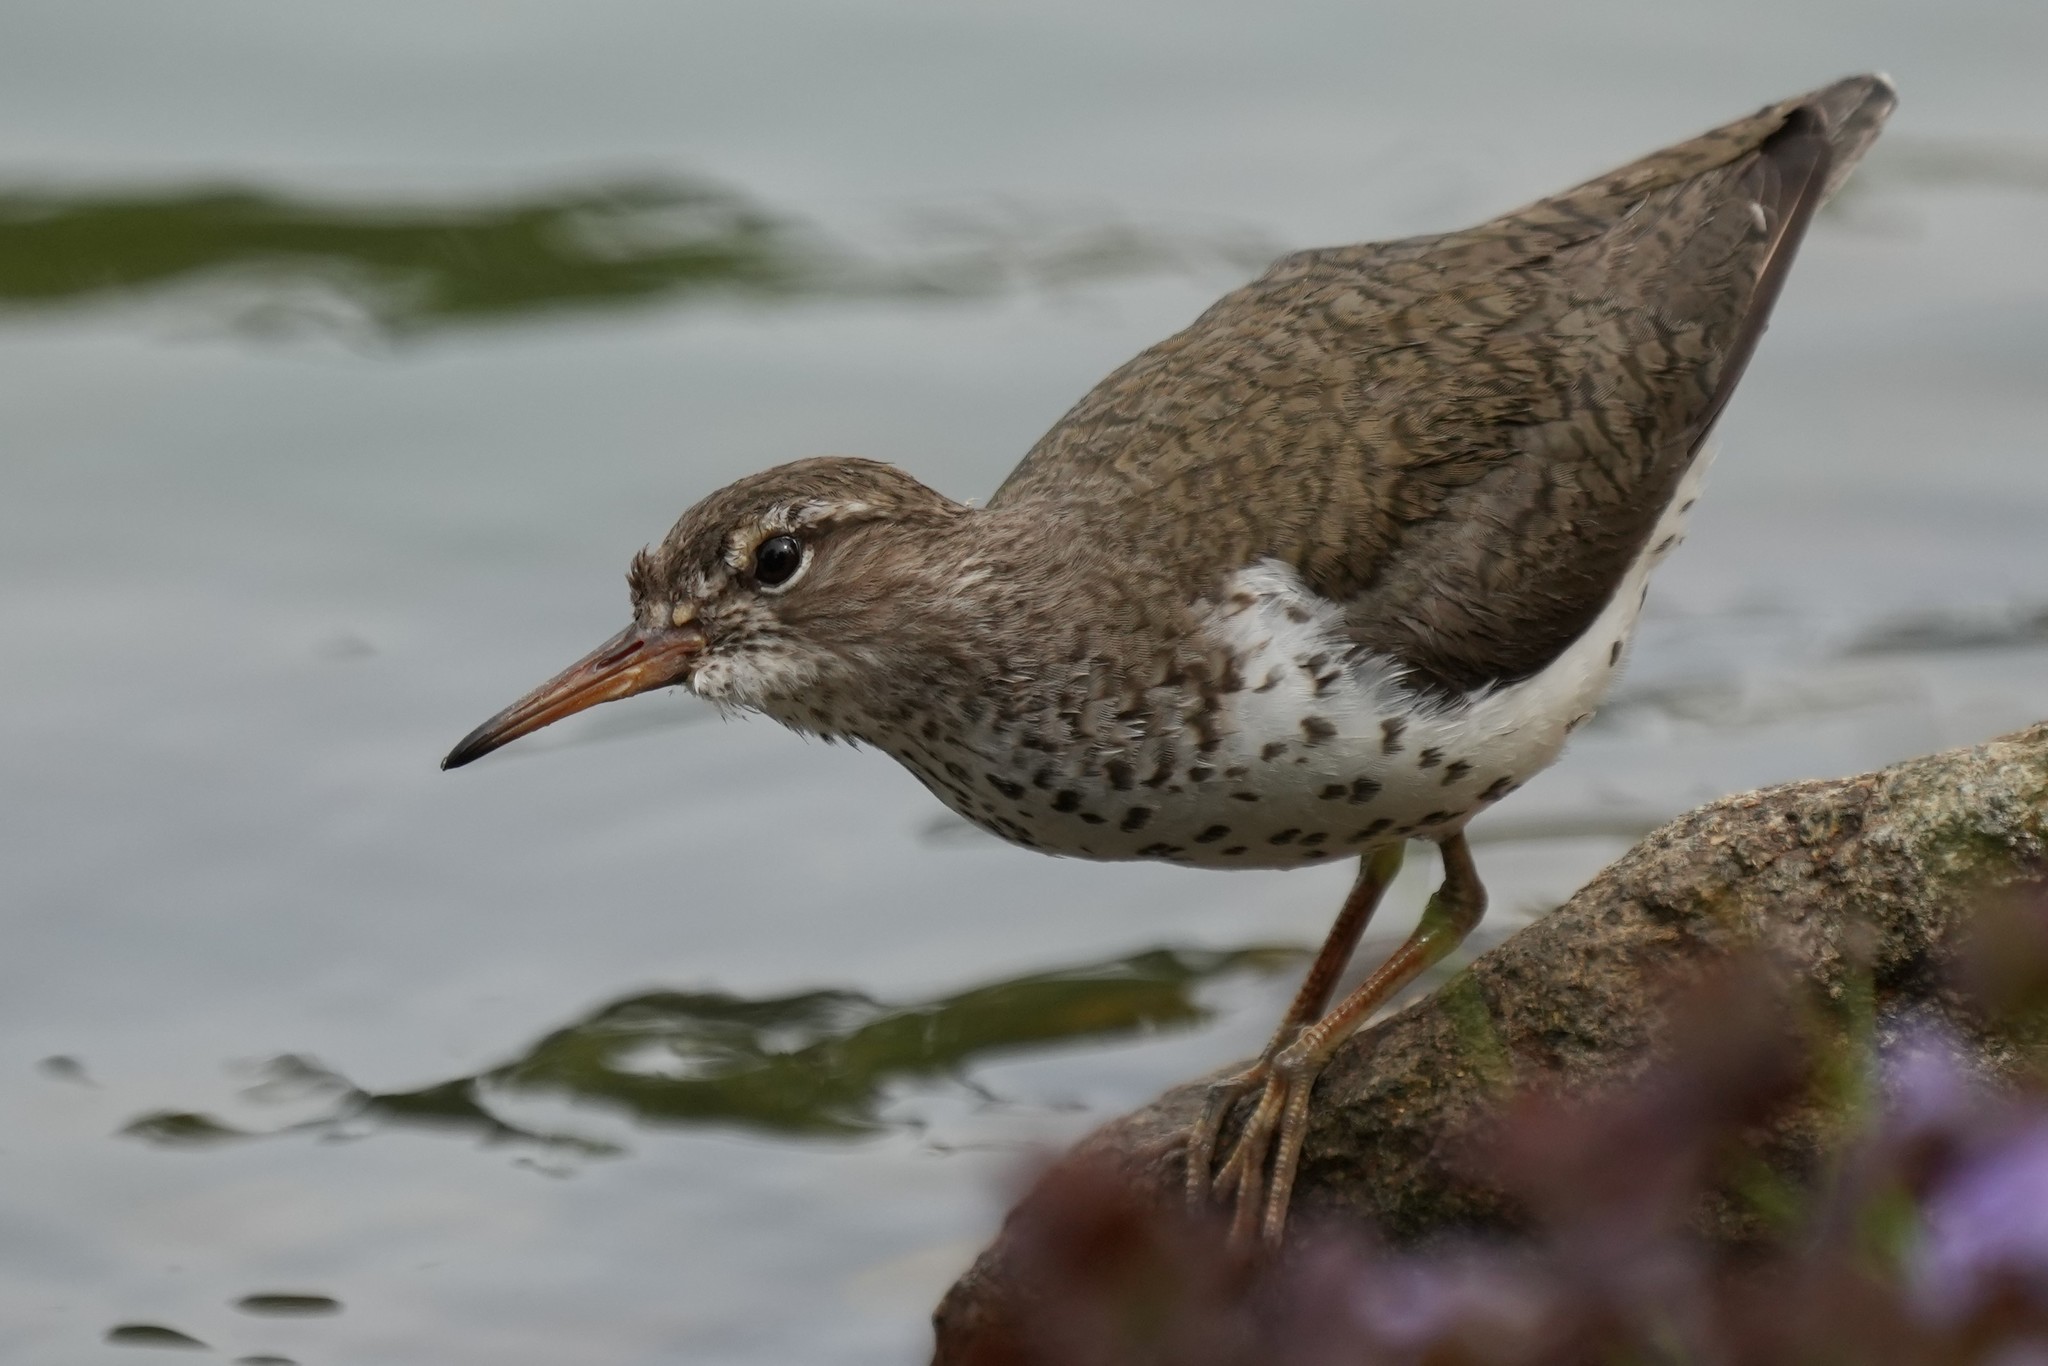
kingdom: Animalia
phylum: Chordata
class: Aves
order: Charadriiformes
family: Scolopacidae
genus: Actitis
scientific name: Actitis macularius
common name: Spotted sandpiper
